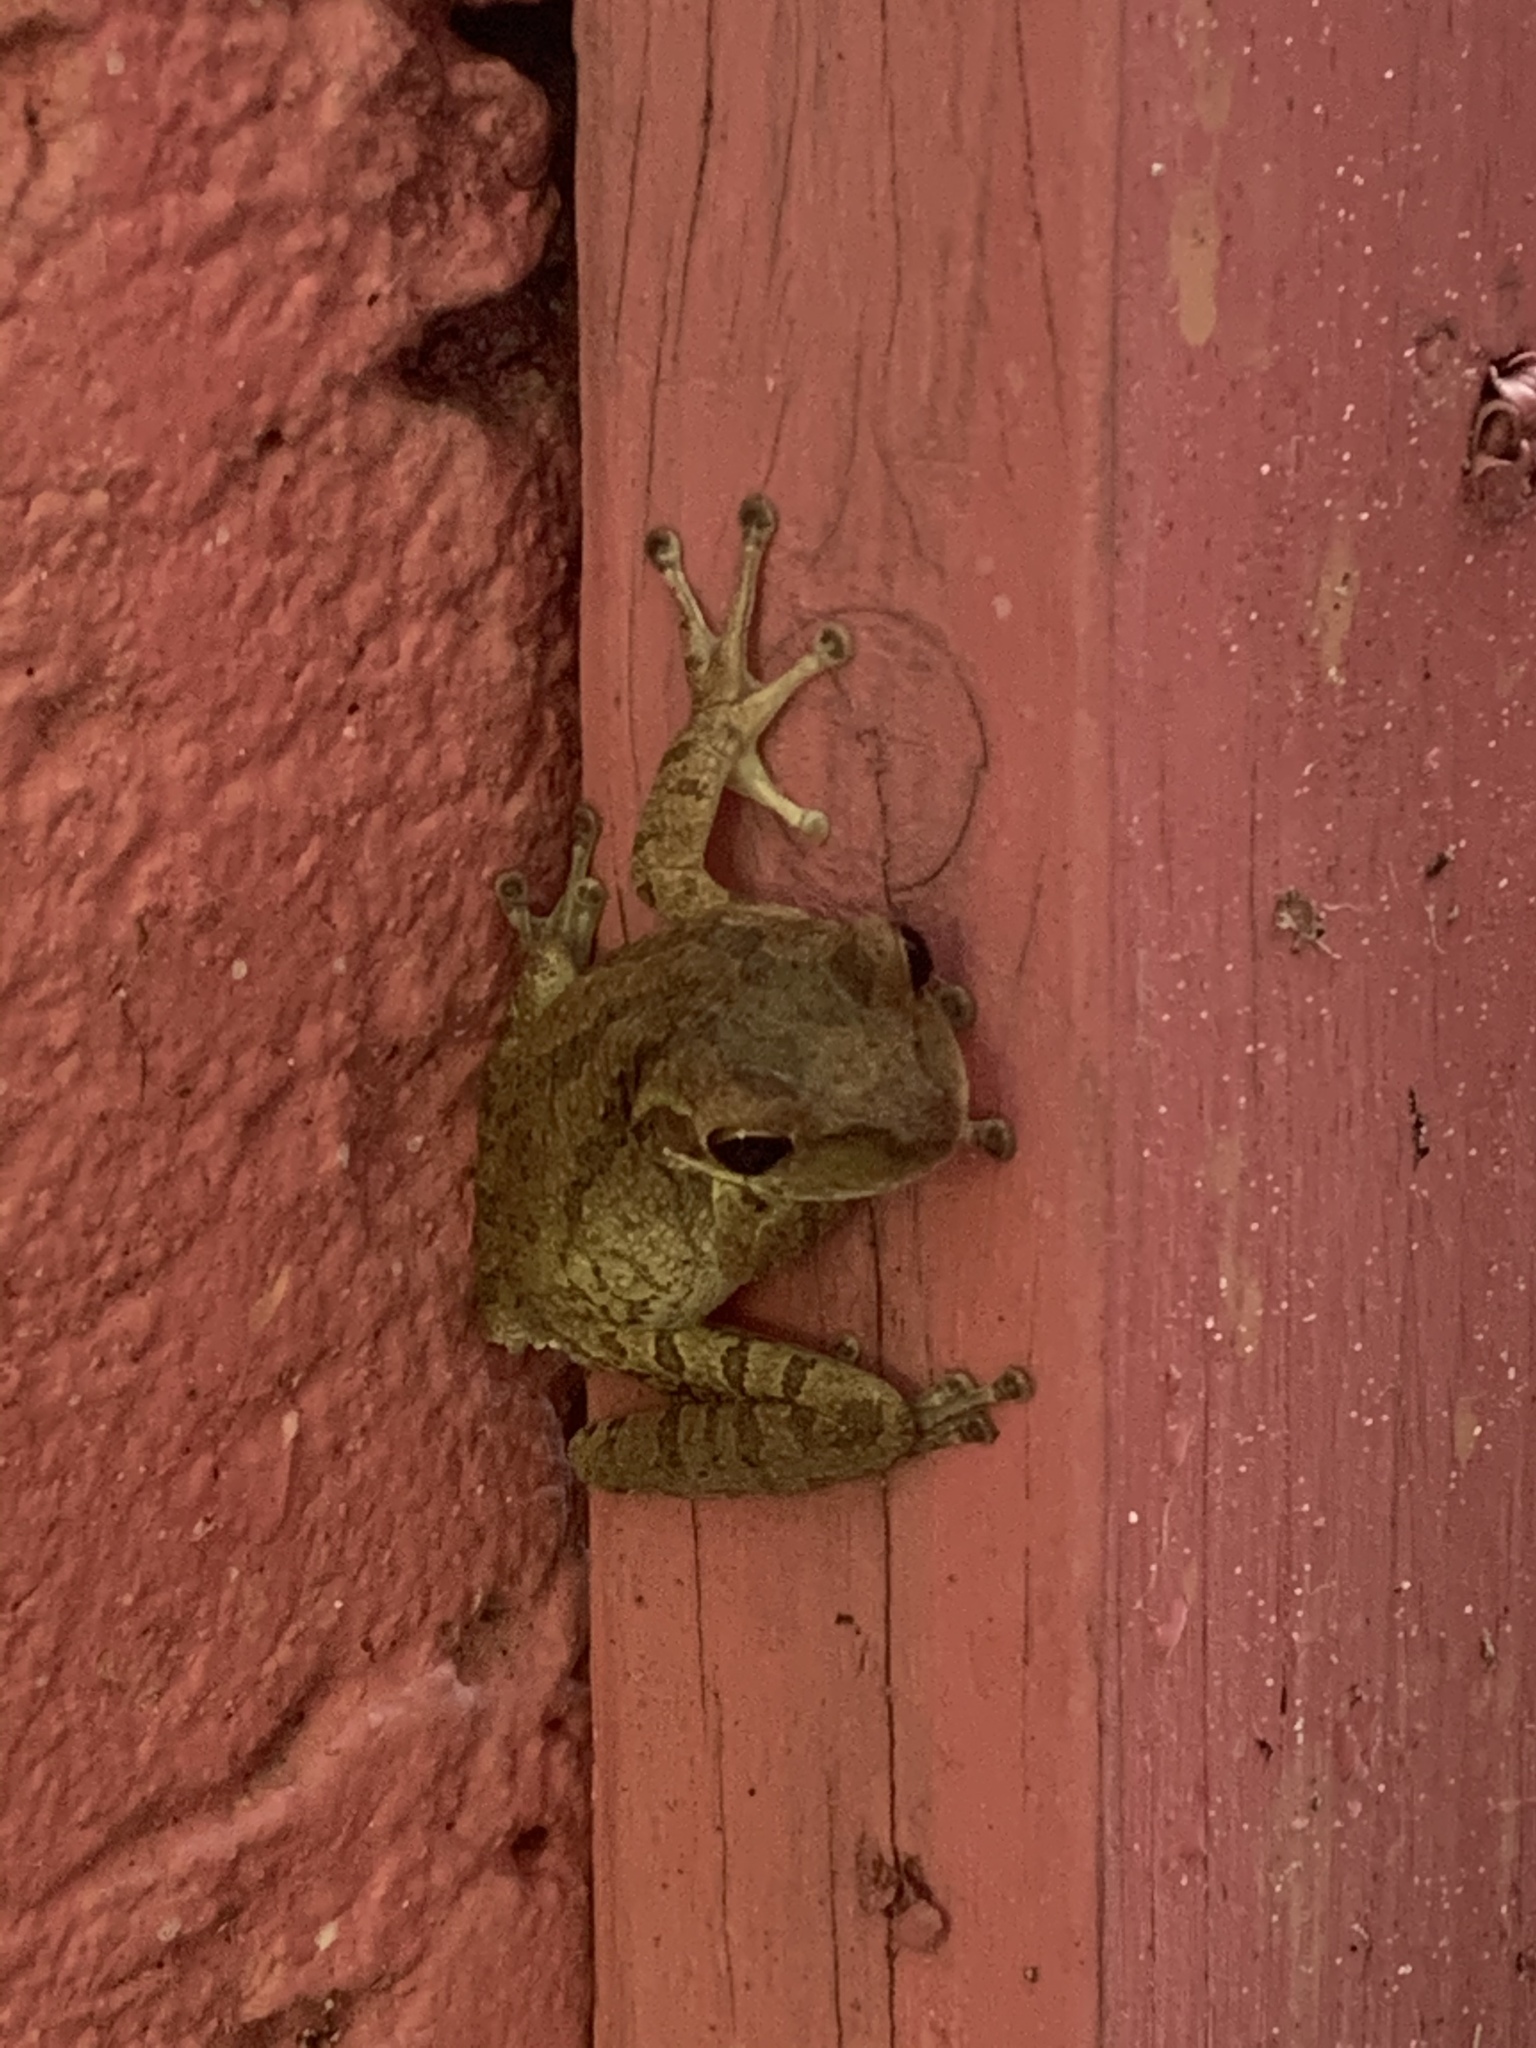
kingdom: Animalia
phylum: Chordata
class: Amphibia
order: Anura
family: Hylidae
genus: Osteopilus
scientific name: Osteopilus septentrionalis
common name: Cuban treefrog
